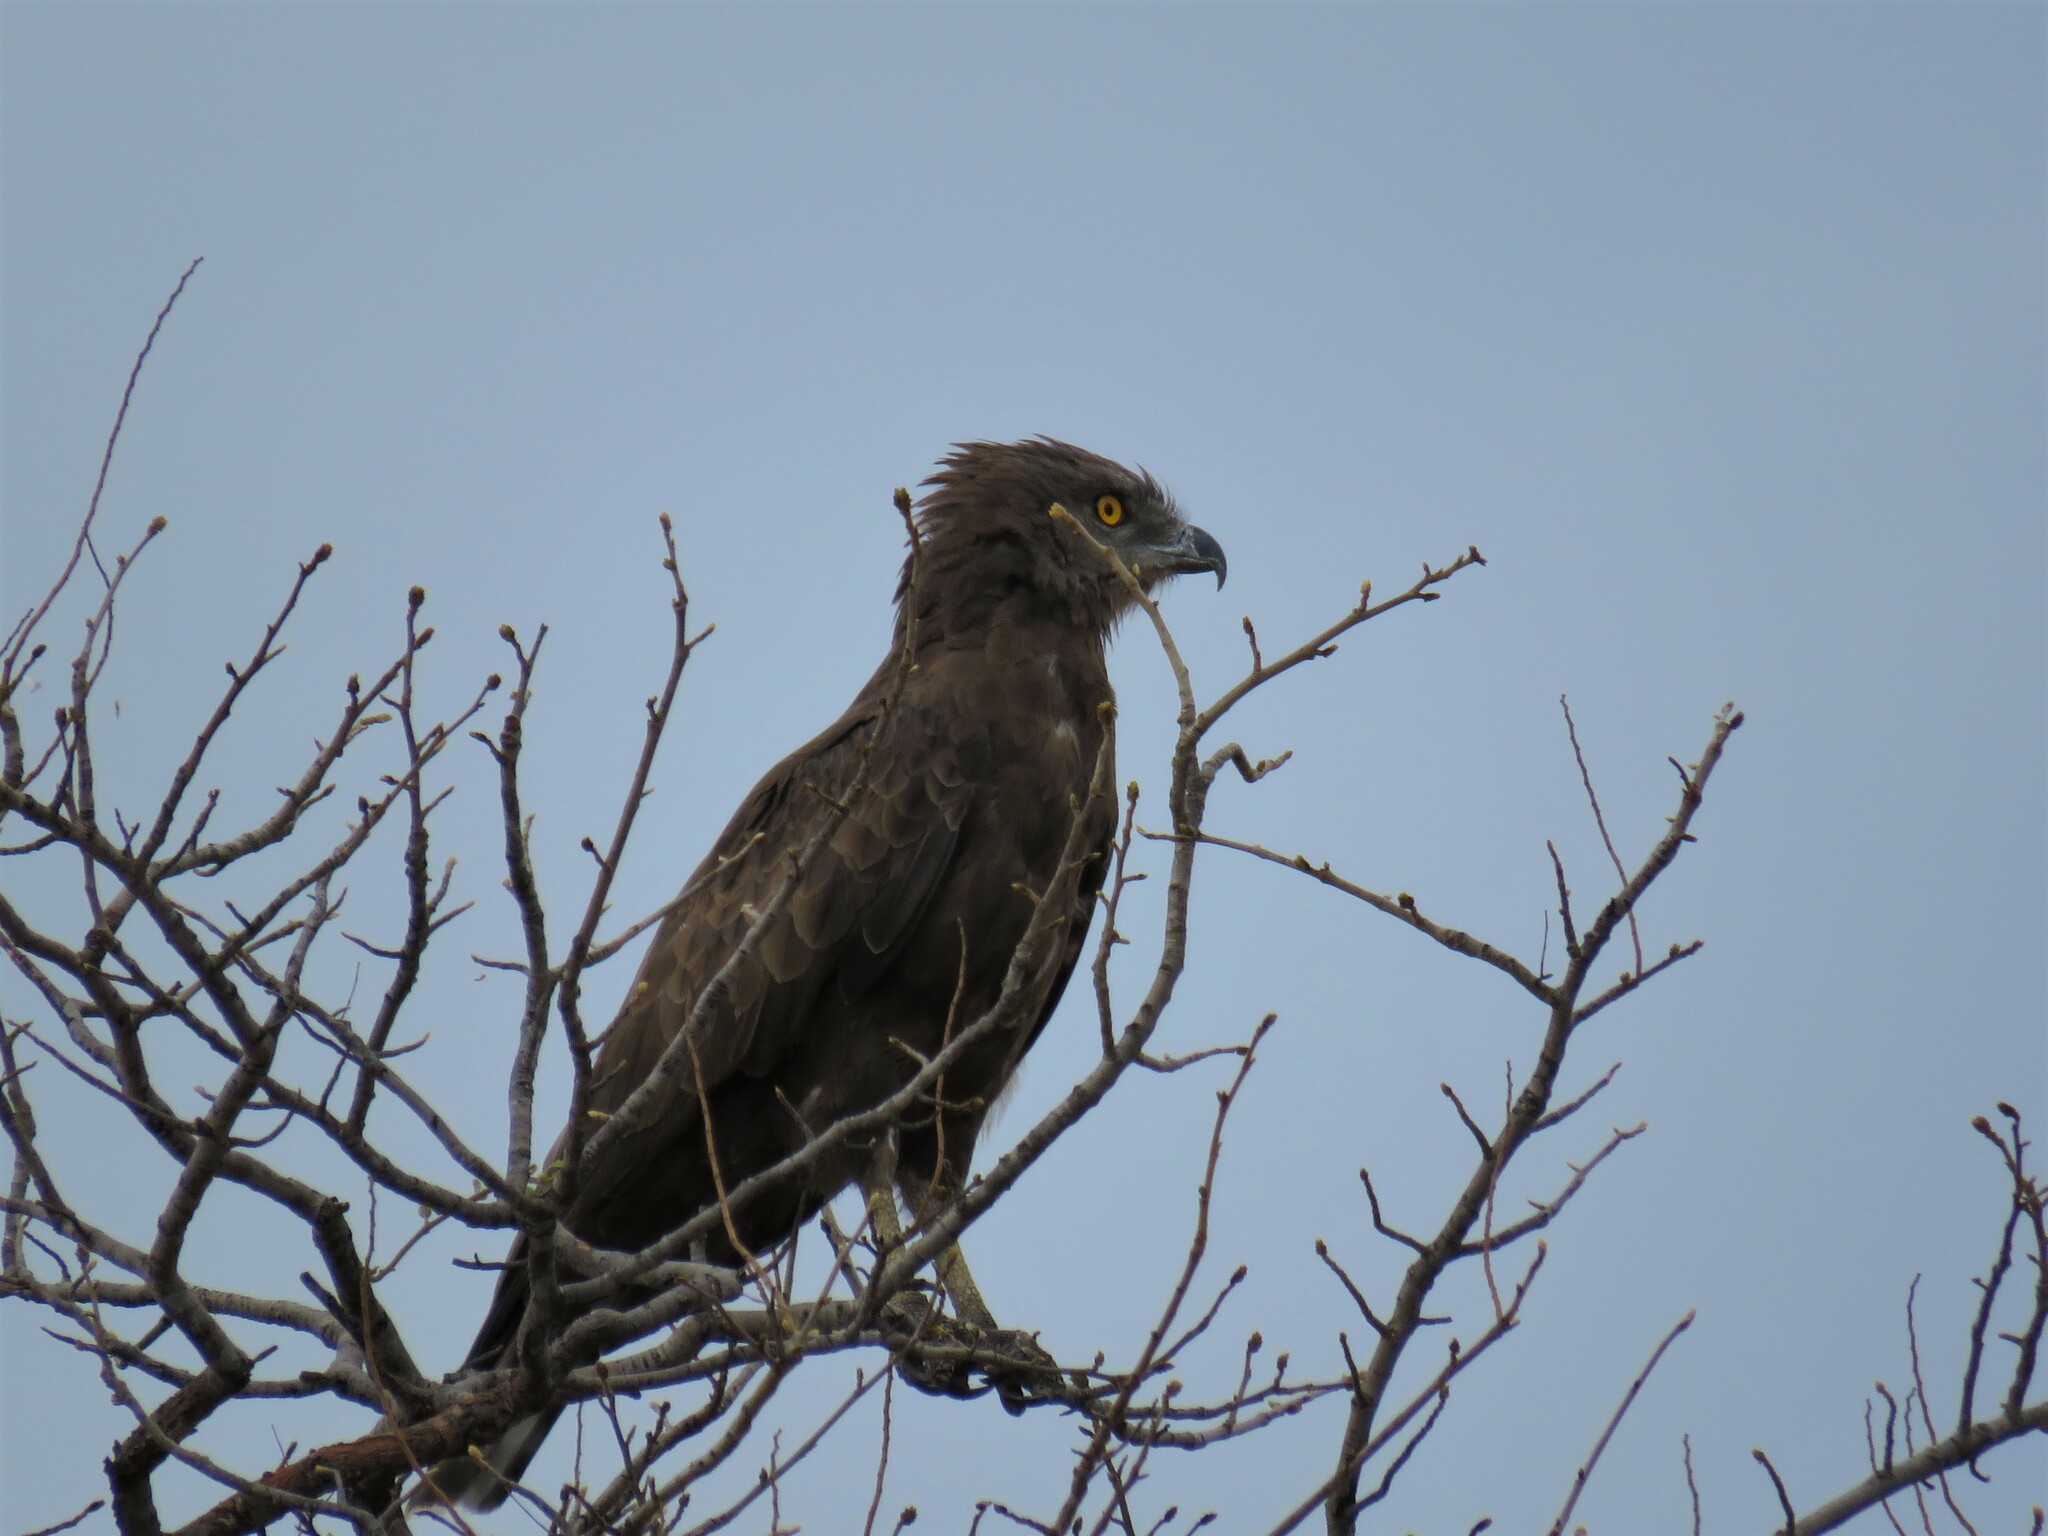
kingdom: Animalia
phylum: Chordata
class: Aves
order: Accipitriformes
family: Accipitridae
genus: Circaetus
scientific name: Circaetus cinereus
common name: Brown snake eagle
